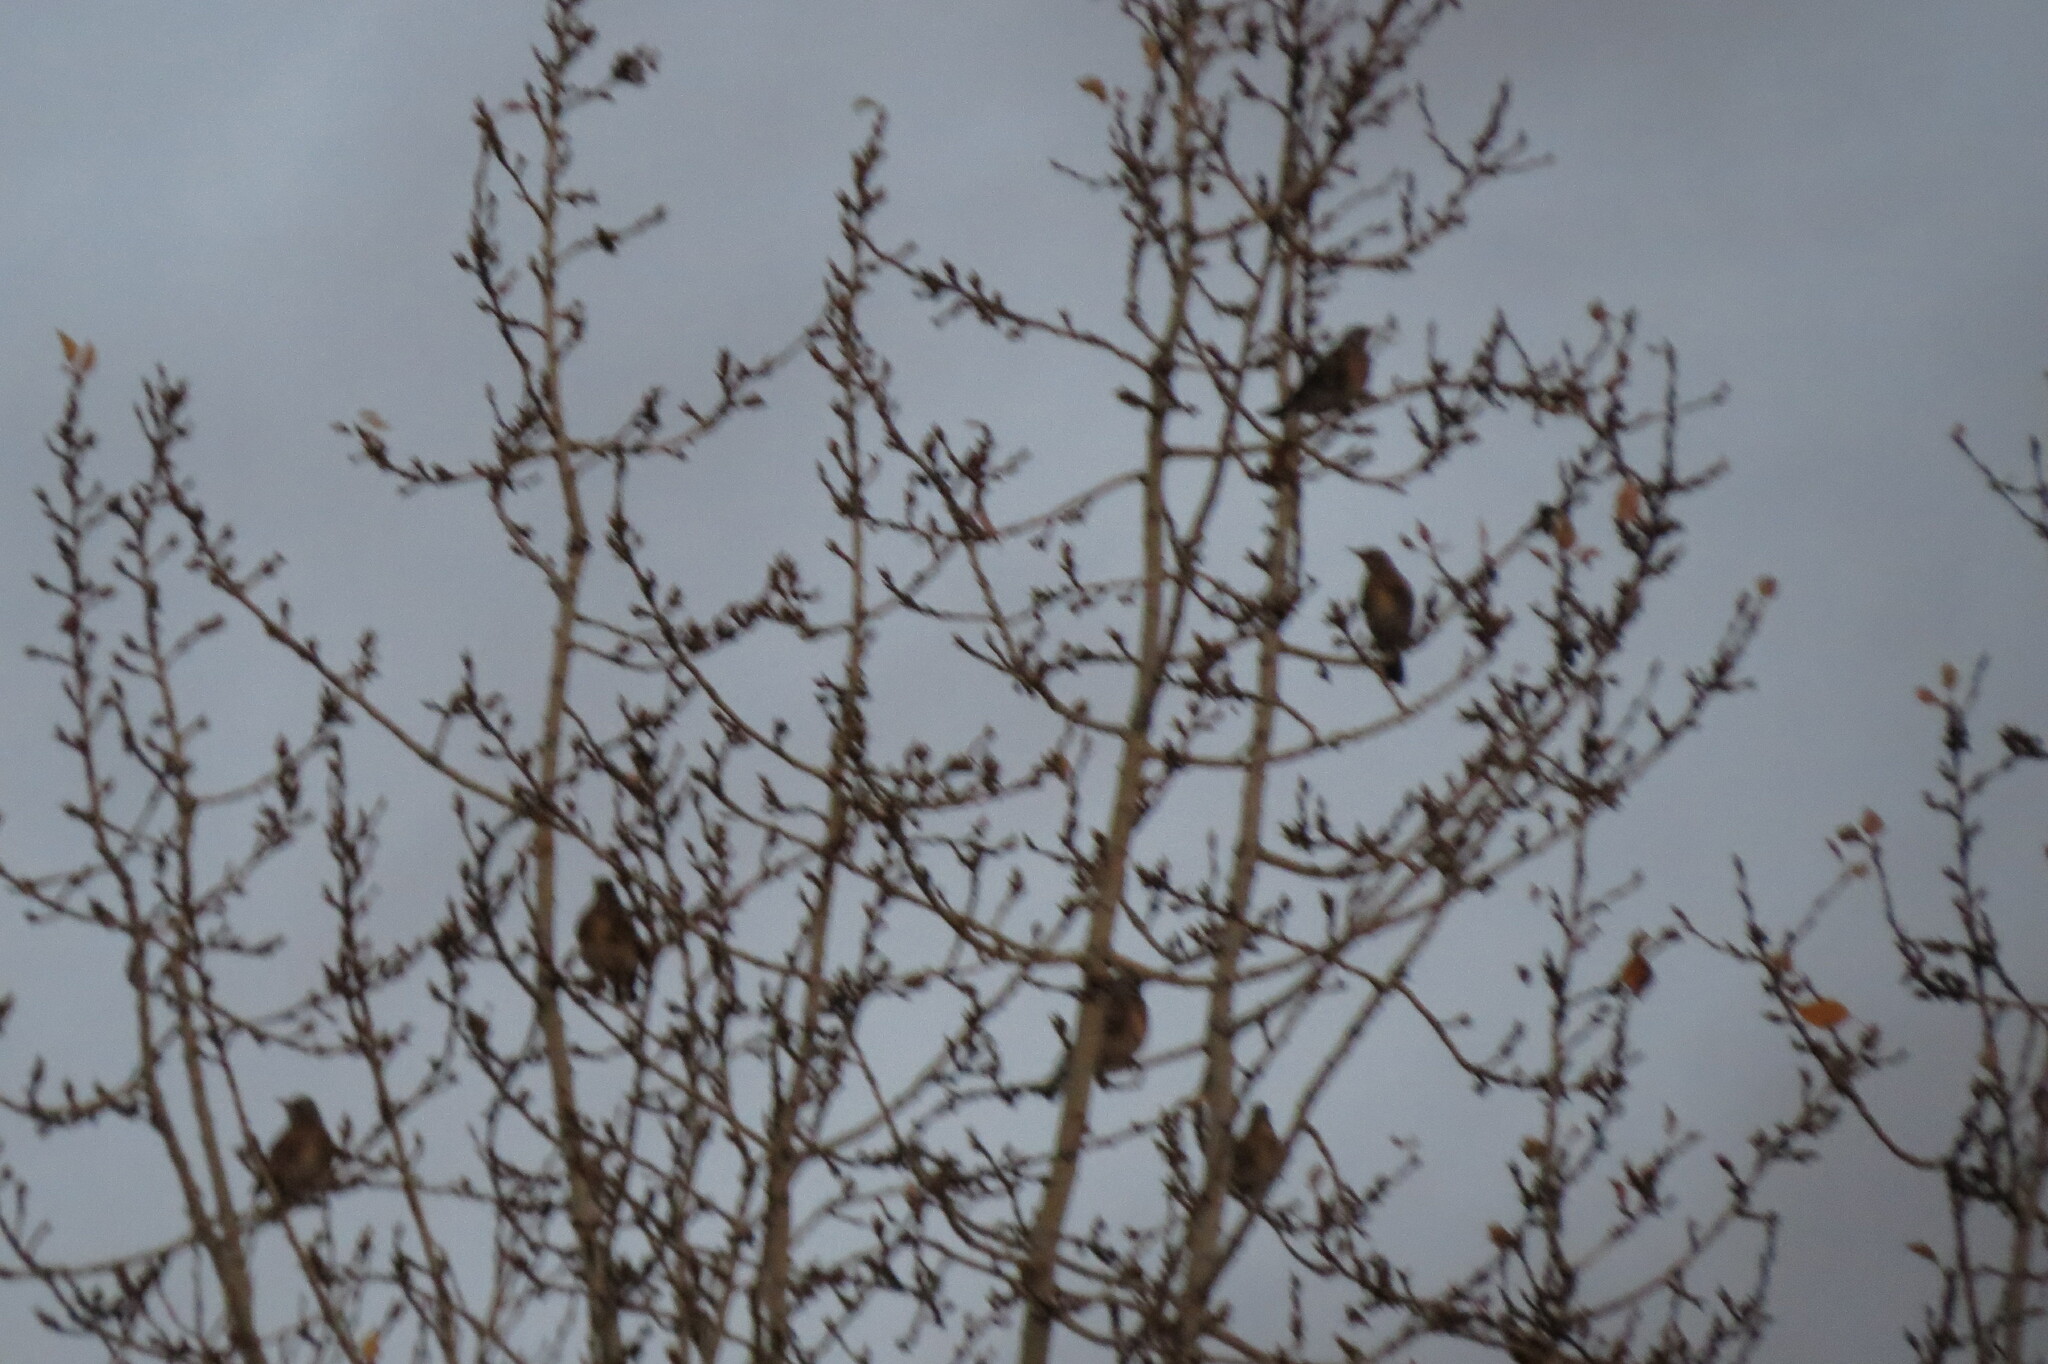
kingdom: Animalia
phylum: Chordata
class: Aves
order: Passeriformes
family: Turdidae
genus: Turdus
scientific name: Turdus pilaris
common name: Fieldfare
